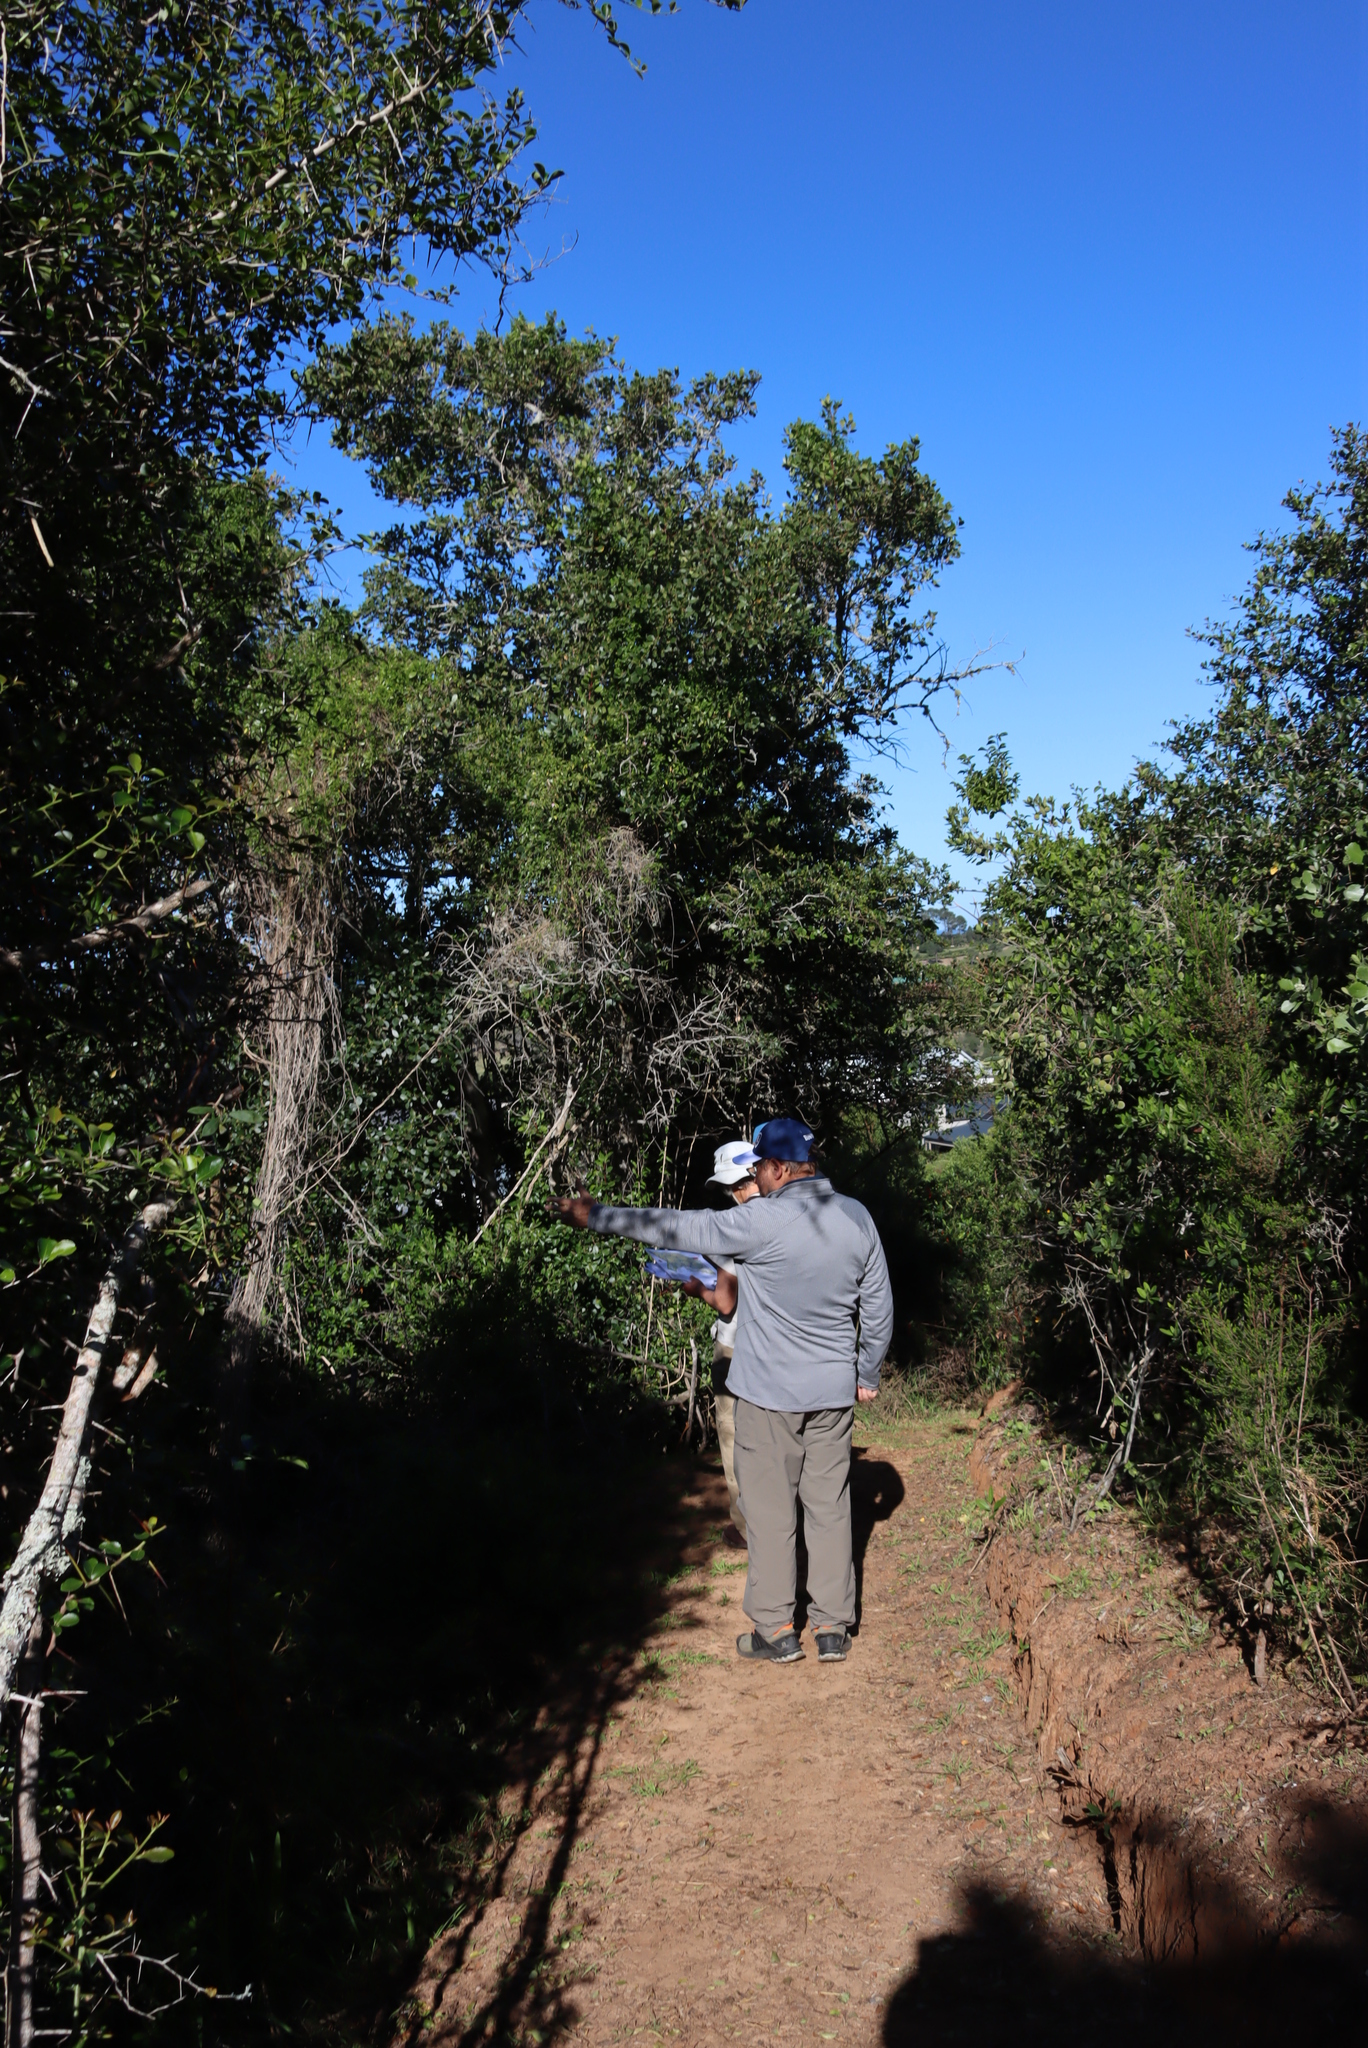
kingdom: Plantae
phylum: Tracheophyta
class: Magnoliopsida
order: Apiales
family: Pittosporaceae
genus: Pittosporum
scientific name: Pittosporum viridiflorum
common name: Cape cheesewood
